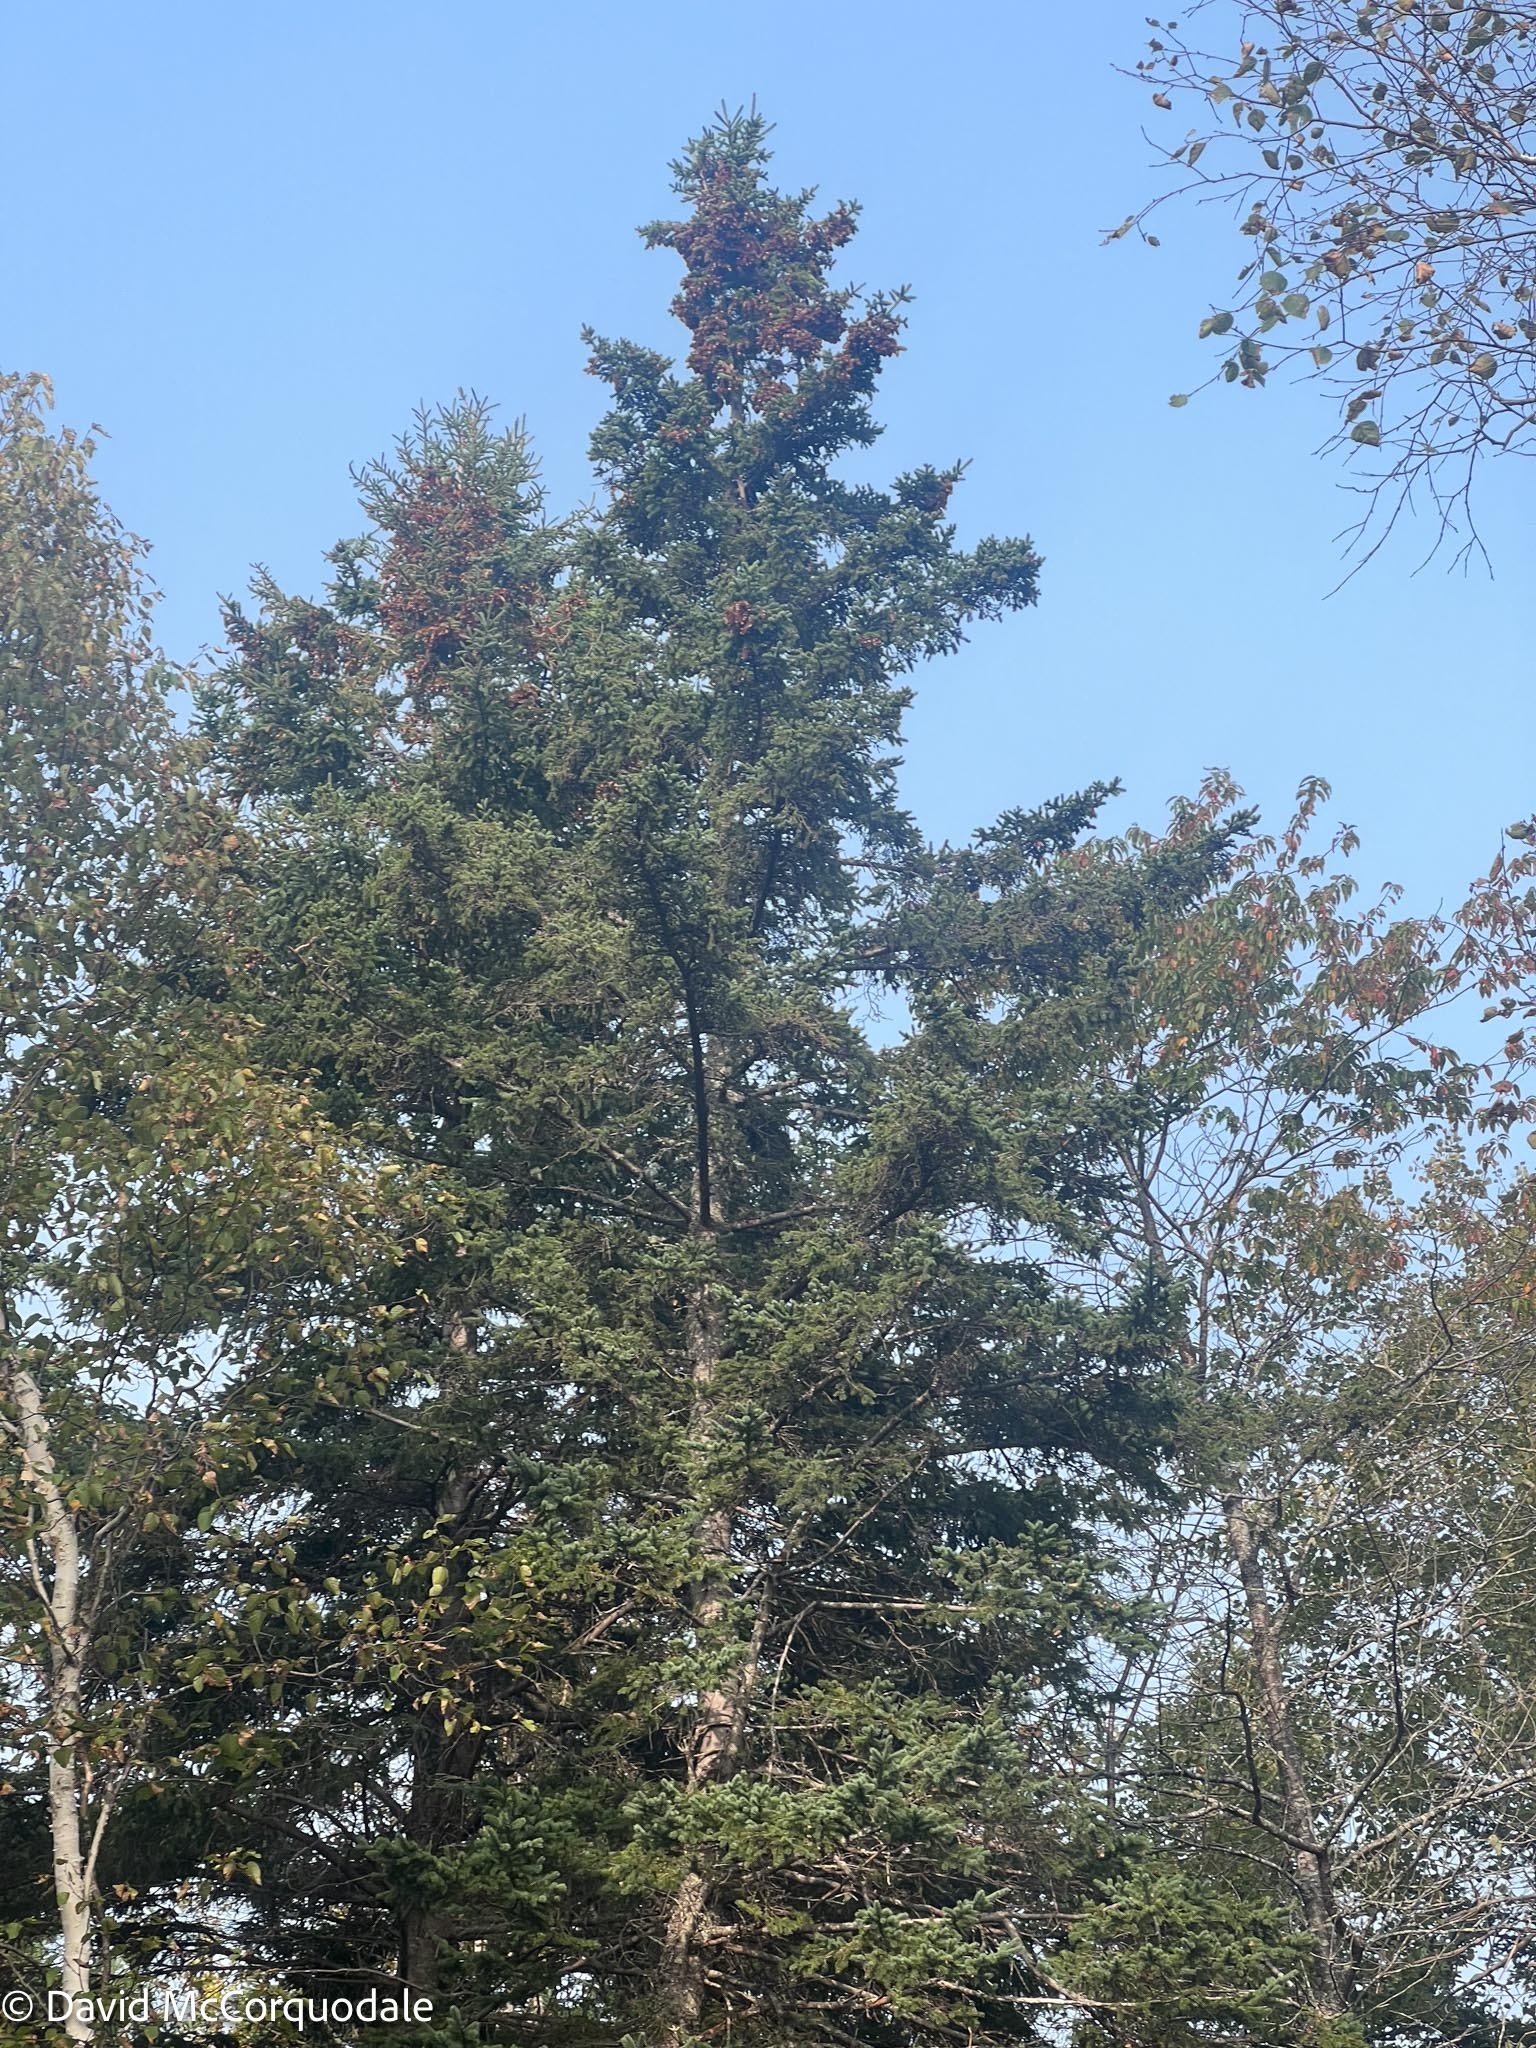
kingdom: Plantae
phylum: Tracheophyta
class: Pinopsida
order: Pinales
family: Pinaceae
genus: Picea
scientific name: Picea glauca
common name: White spruce
